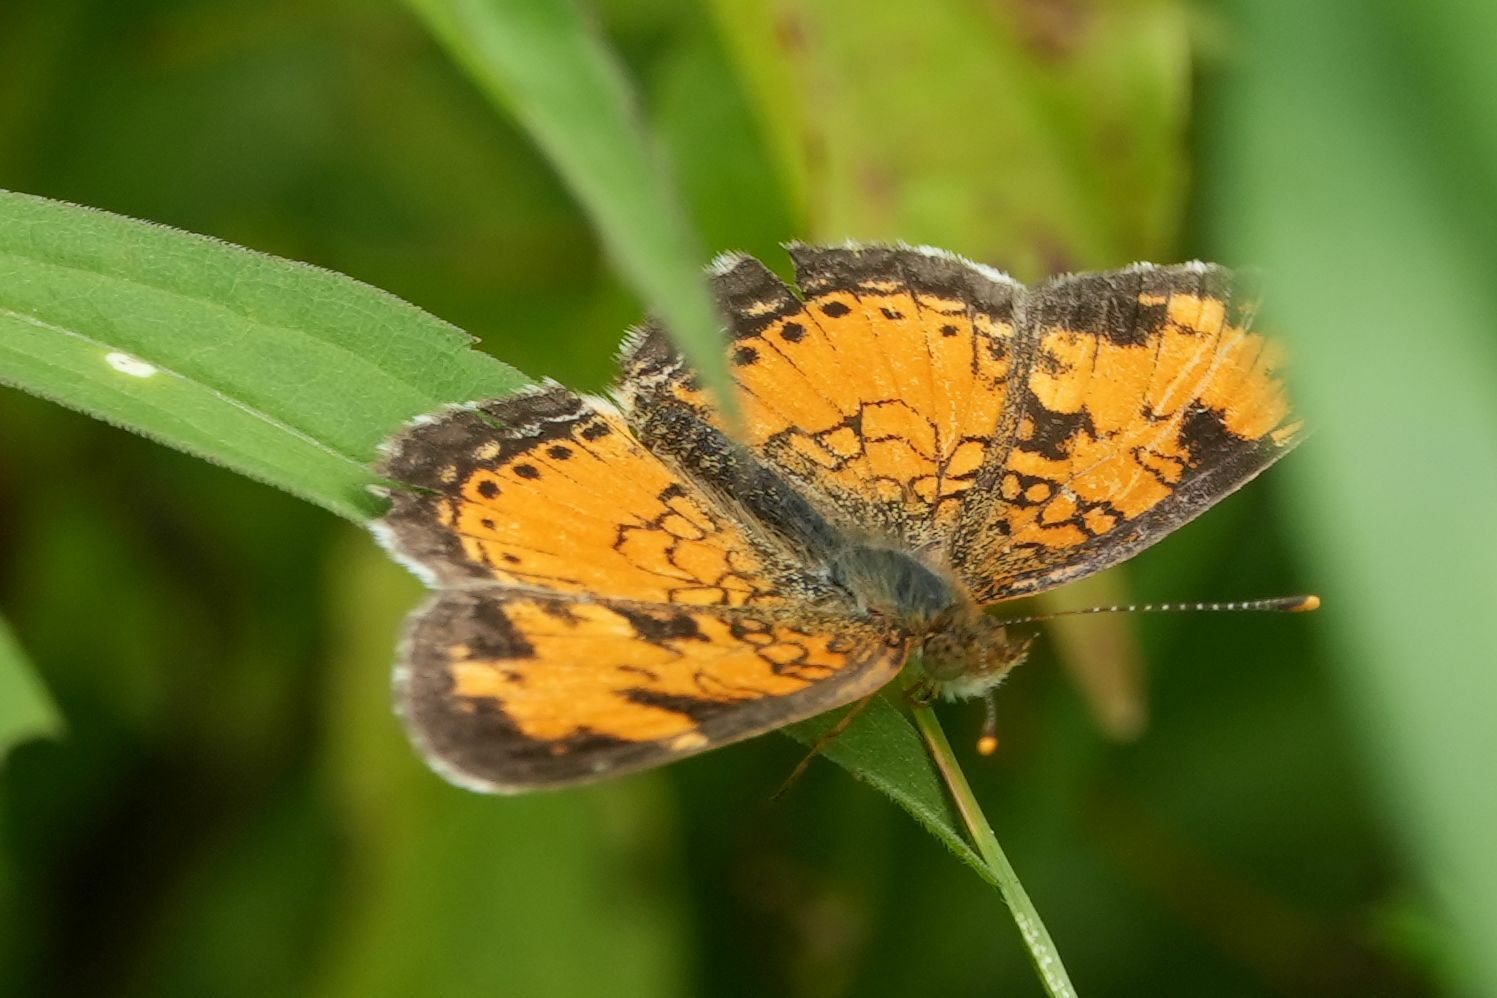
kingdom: Animalia
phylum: Arthropoda
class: Insecta
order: Lepidoptera
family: Nymphalidae
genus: Phyciodes
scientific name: Phyciodes tharos
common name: Pearl crescent
